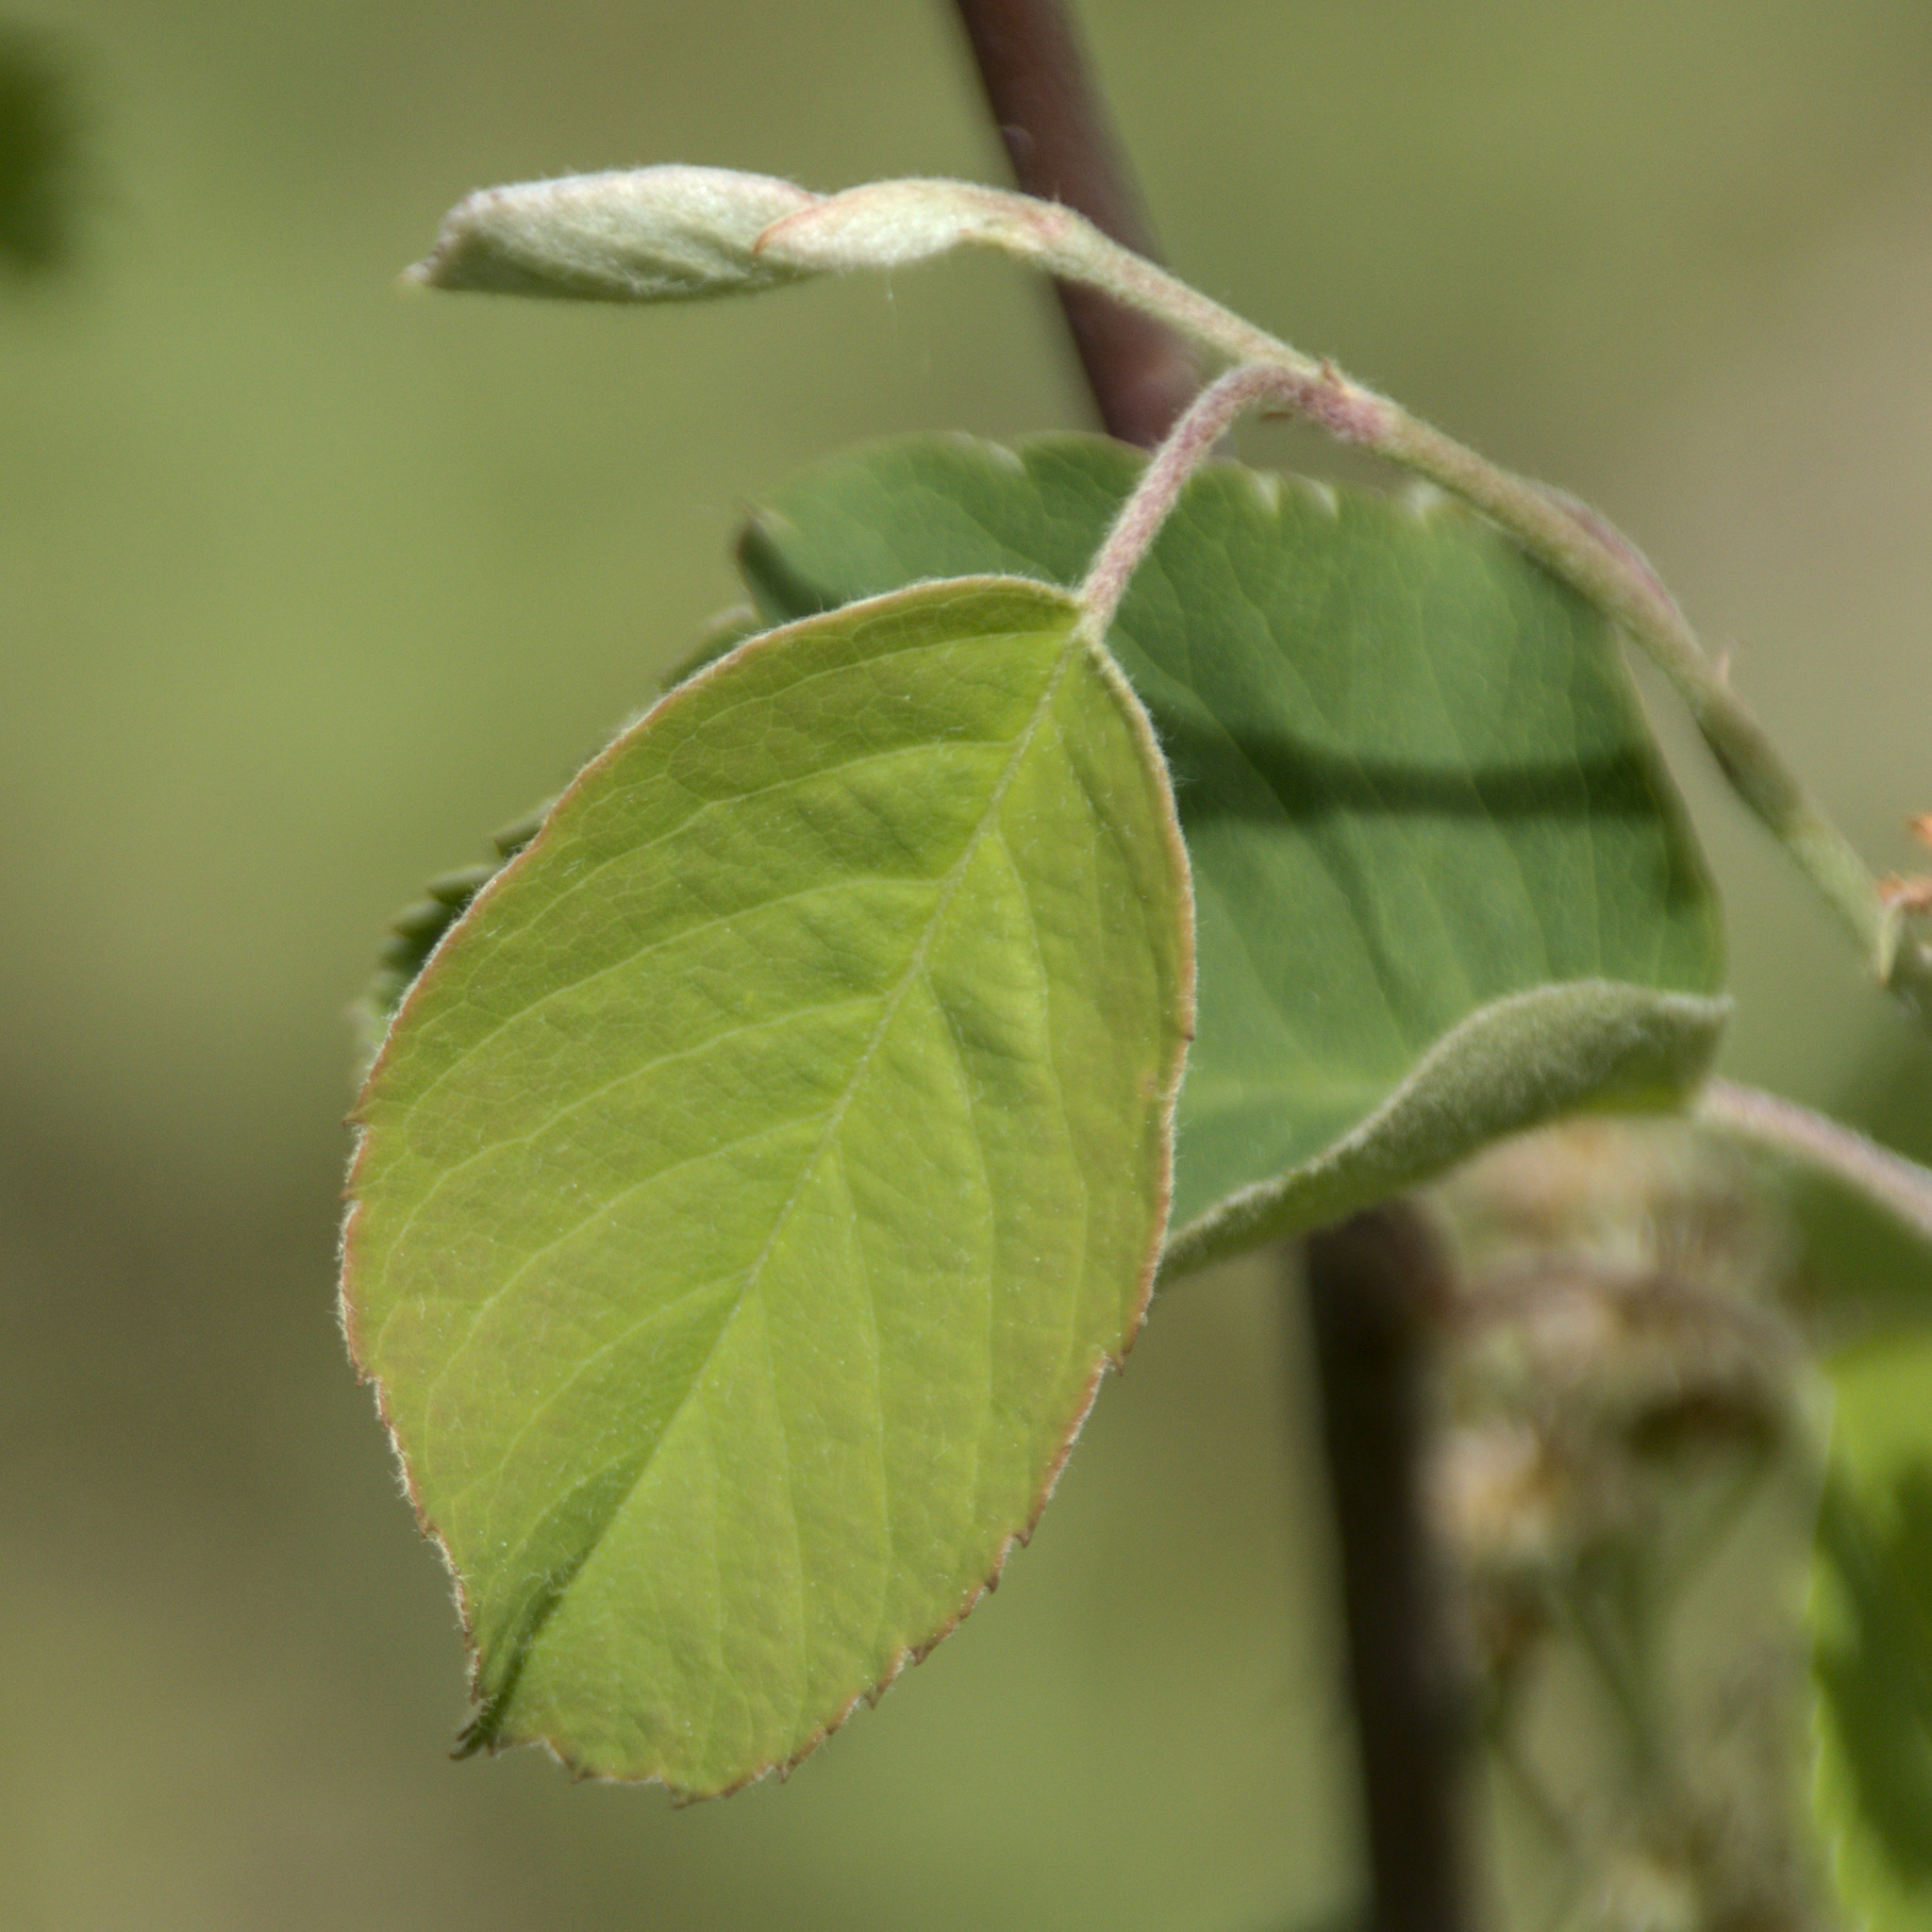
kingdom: Plantae
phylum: Tracheophyta
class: Magnoliopsida
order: Rosales
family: Rosaceae
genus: Amelanchier
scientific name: Amelanchier
